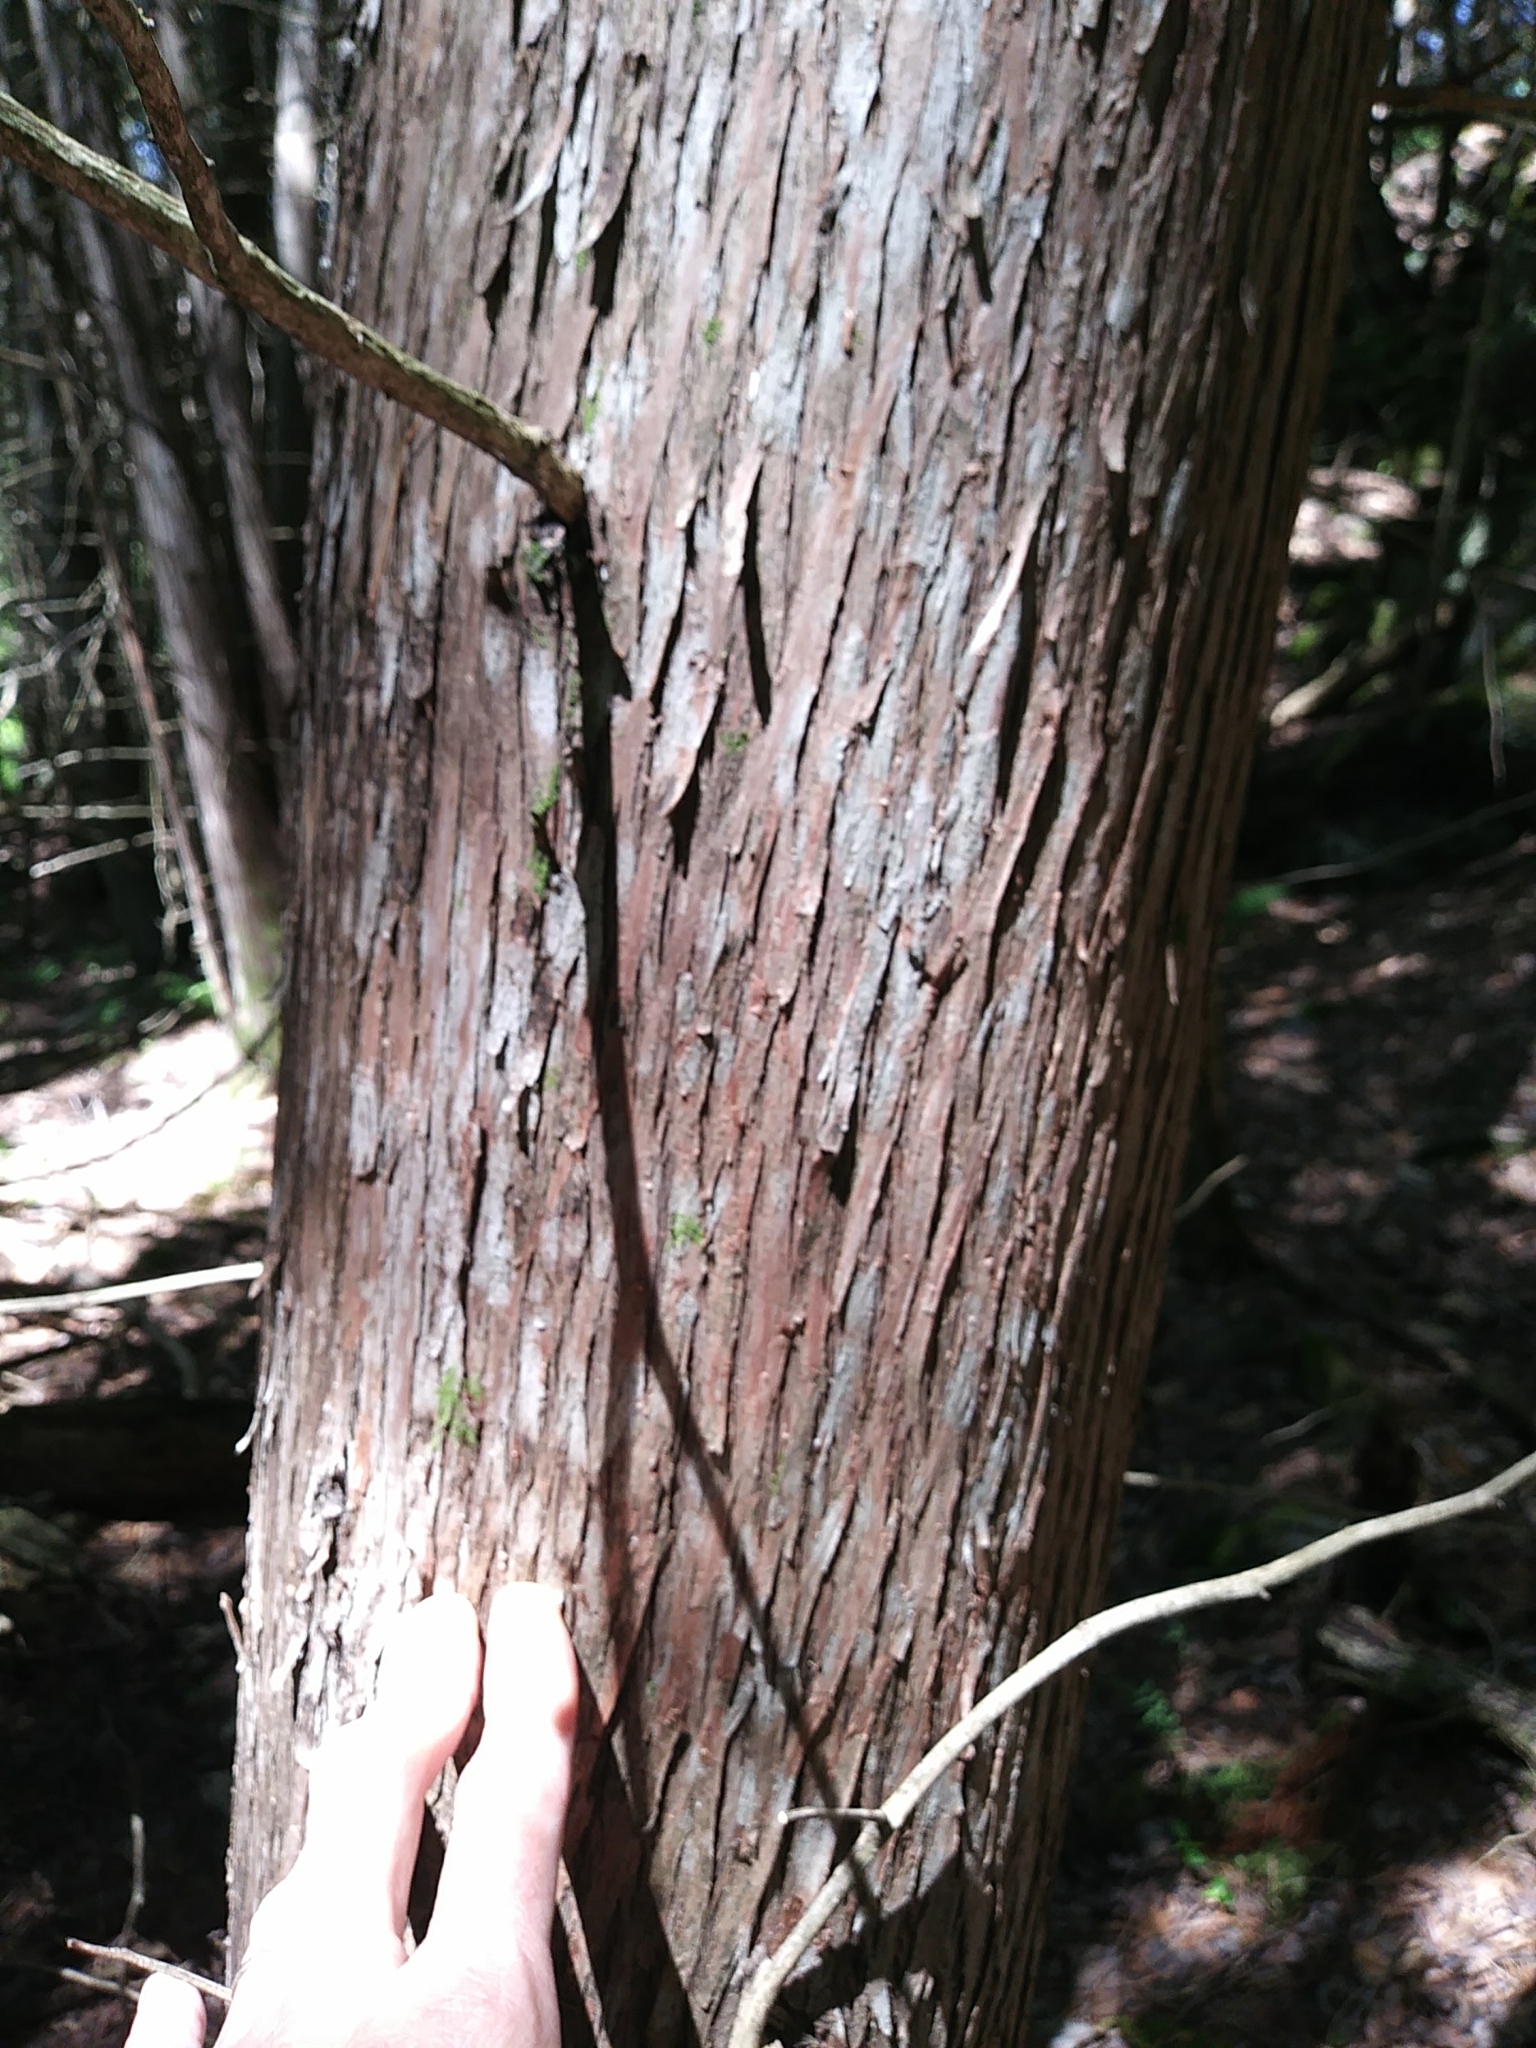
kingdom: Plantae
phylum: Tracheophyta
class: Pinopsida
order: Pinales
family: Cupressaceae
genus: Thuja
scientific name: Thuja occidentalis
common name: Northern white-cedar
